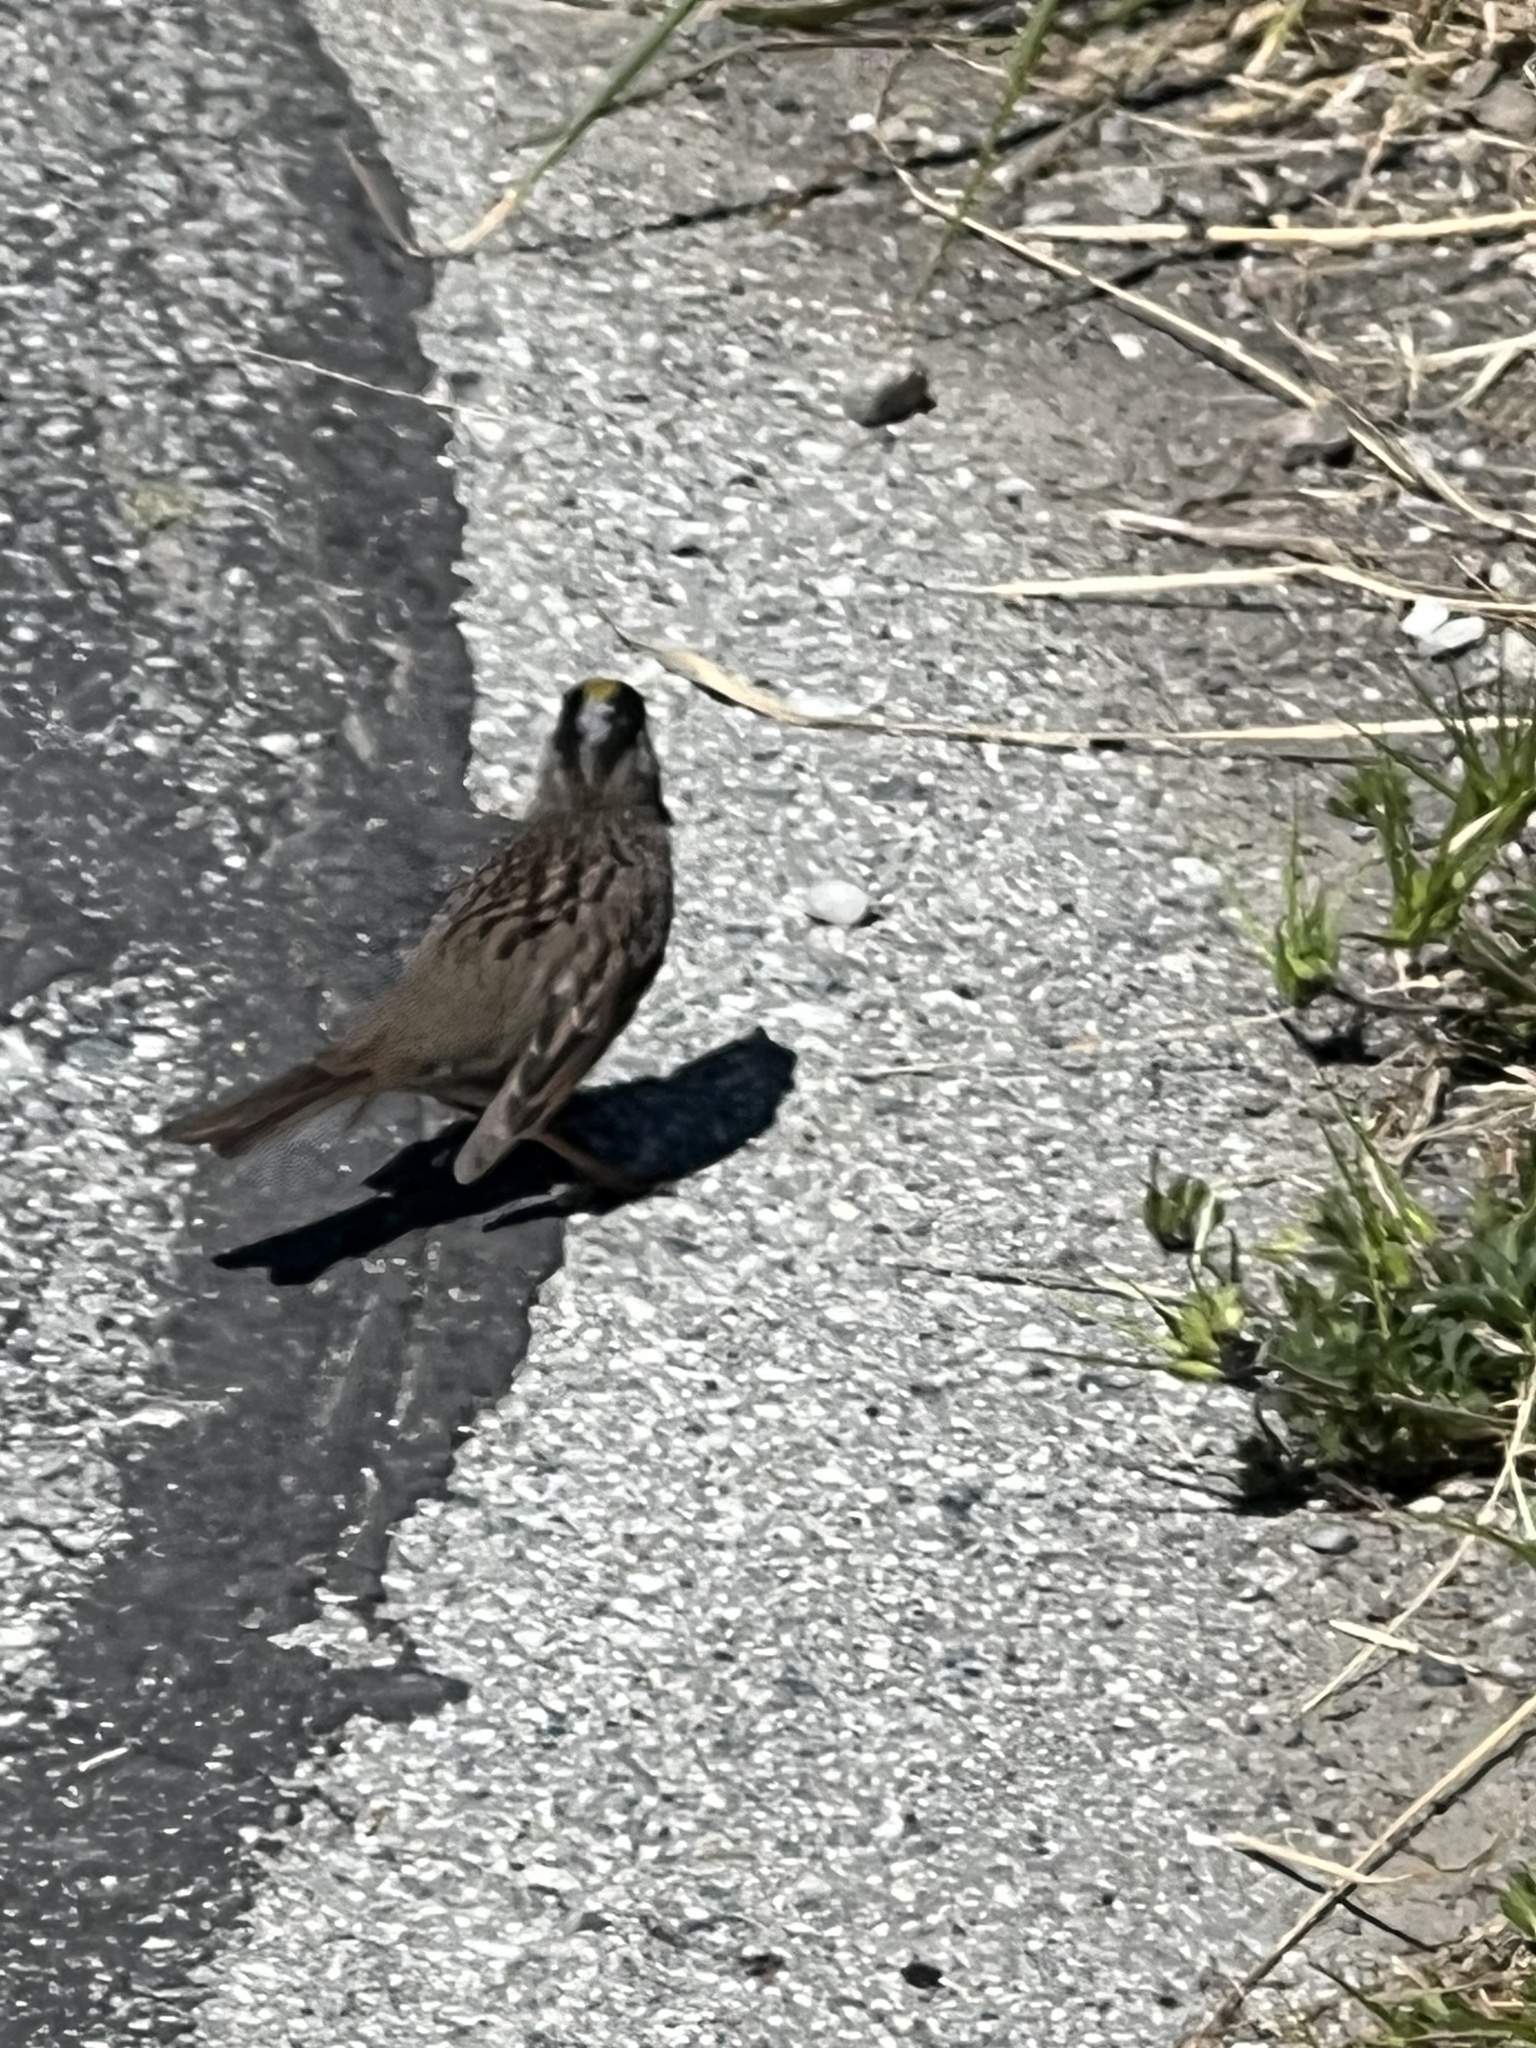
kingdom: Animalia
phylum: Chordata
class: Aves
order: Passeriformes
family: Passerellidae
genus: Zonotrichia
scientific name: Zonotrichia atricapilla
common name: Golden-crowned sparrow
